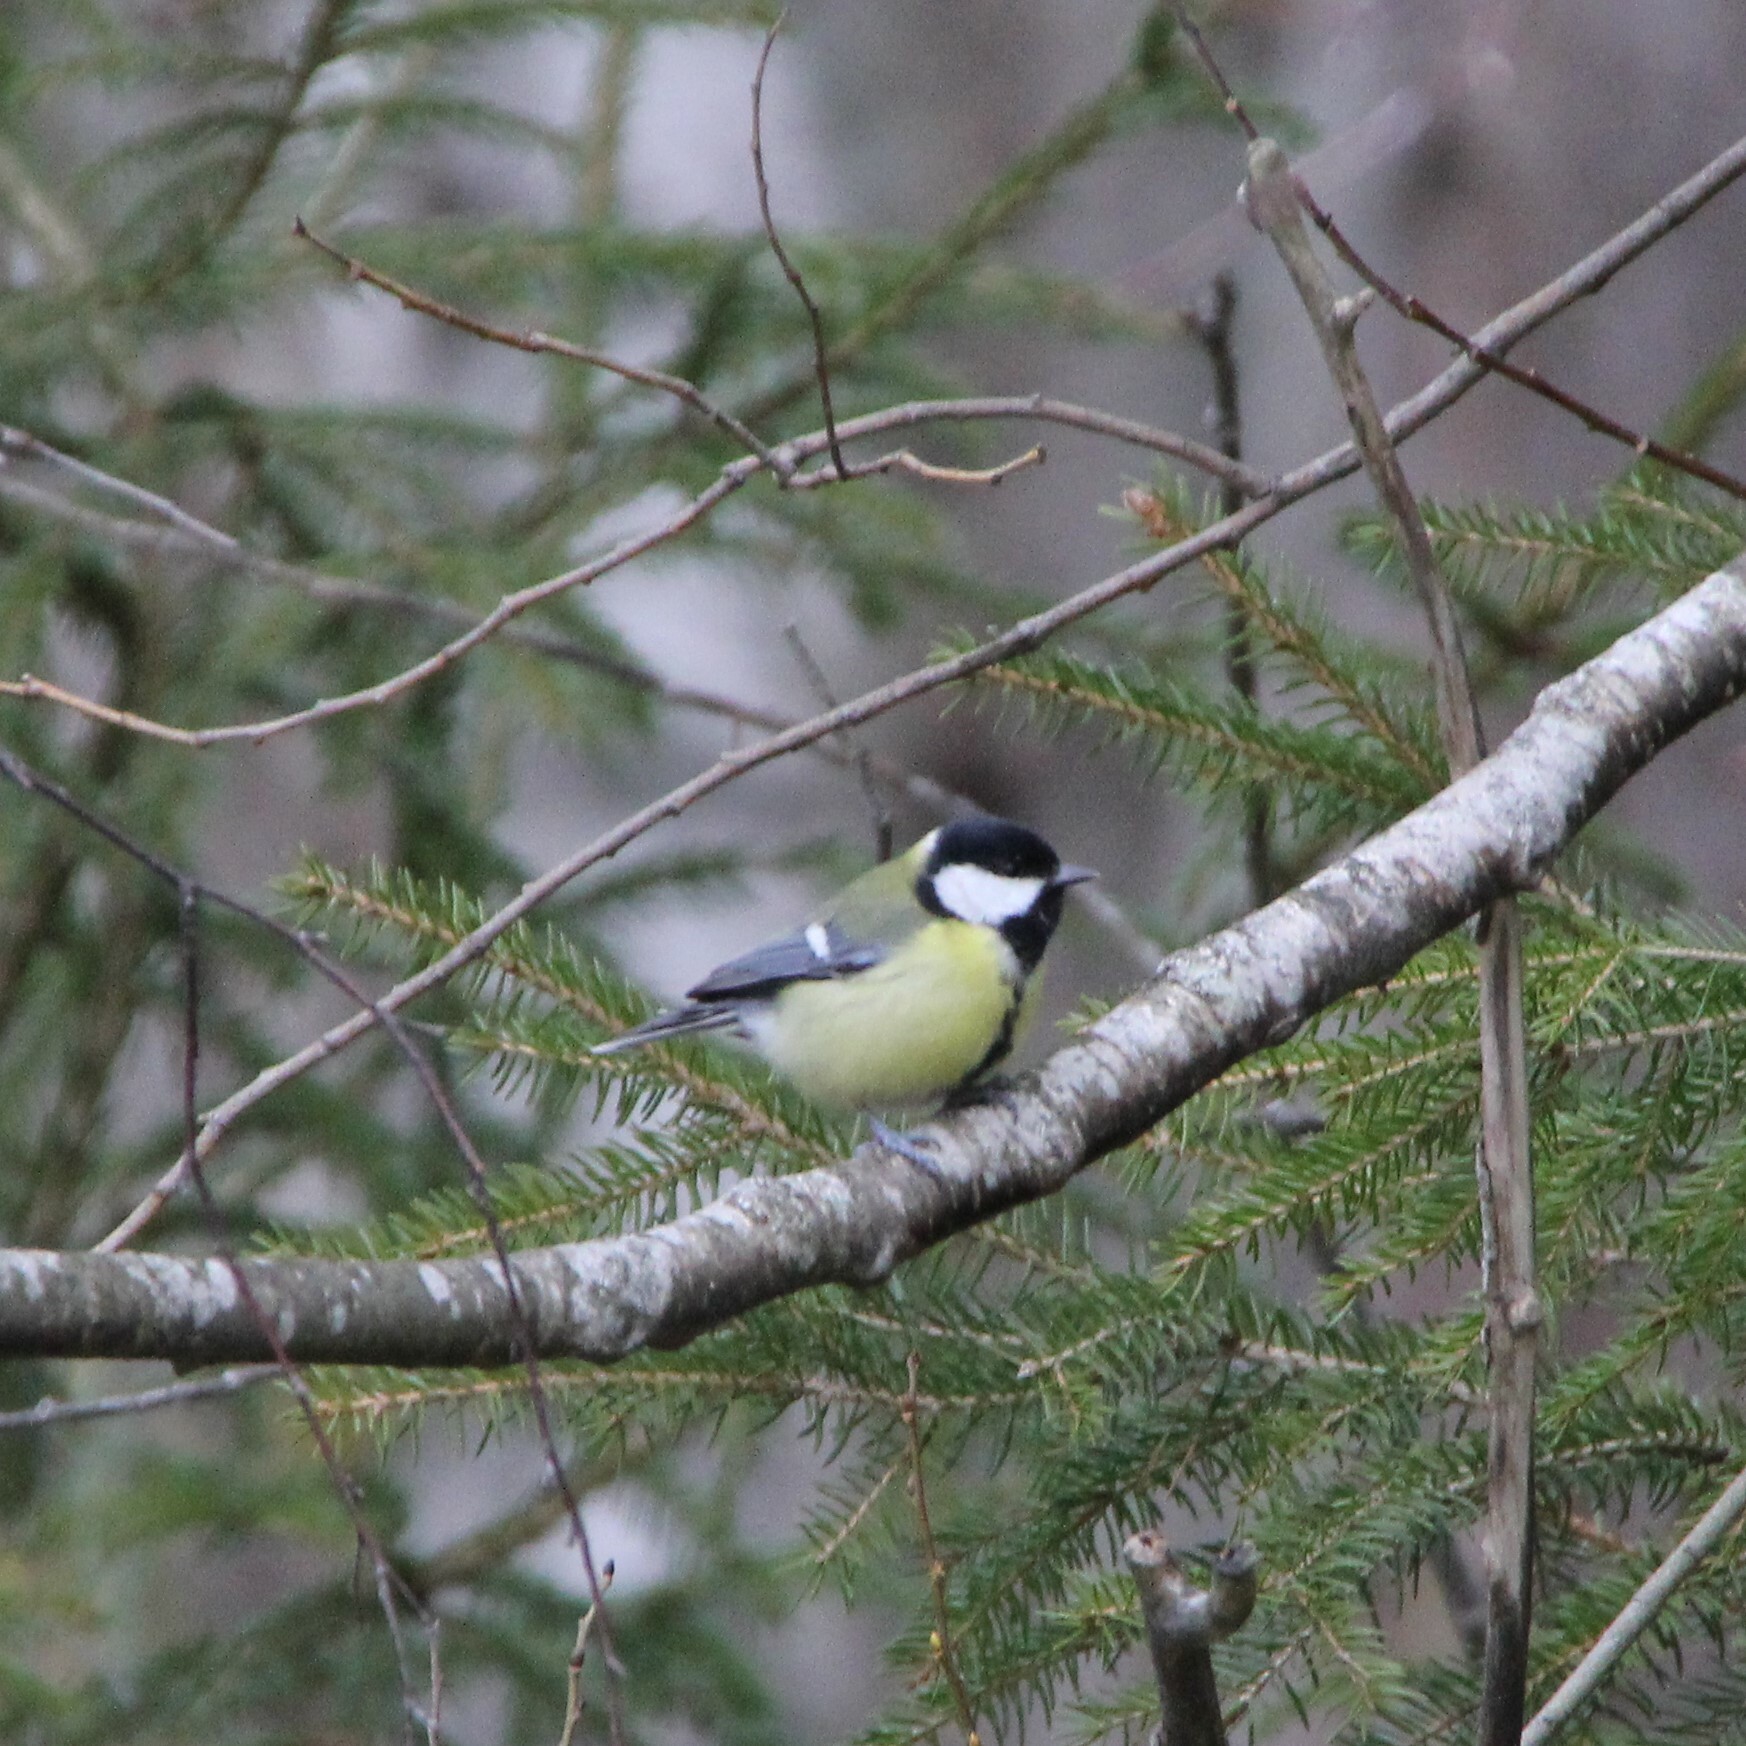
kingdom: Animalia
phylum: Chordata
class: Aves
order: Passeriformes
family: Paridae
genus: Parus
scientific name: Parus major
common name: Great tit
